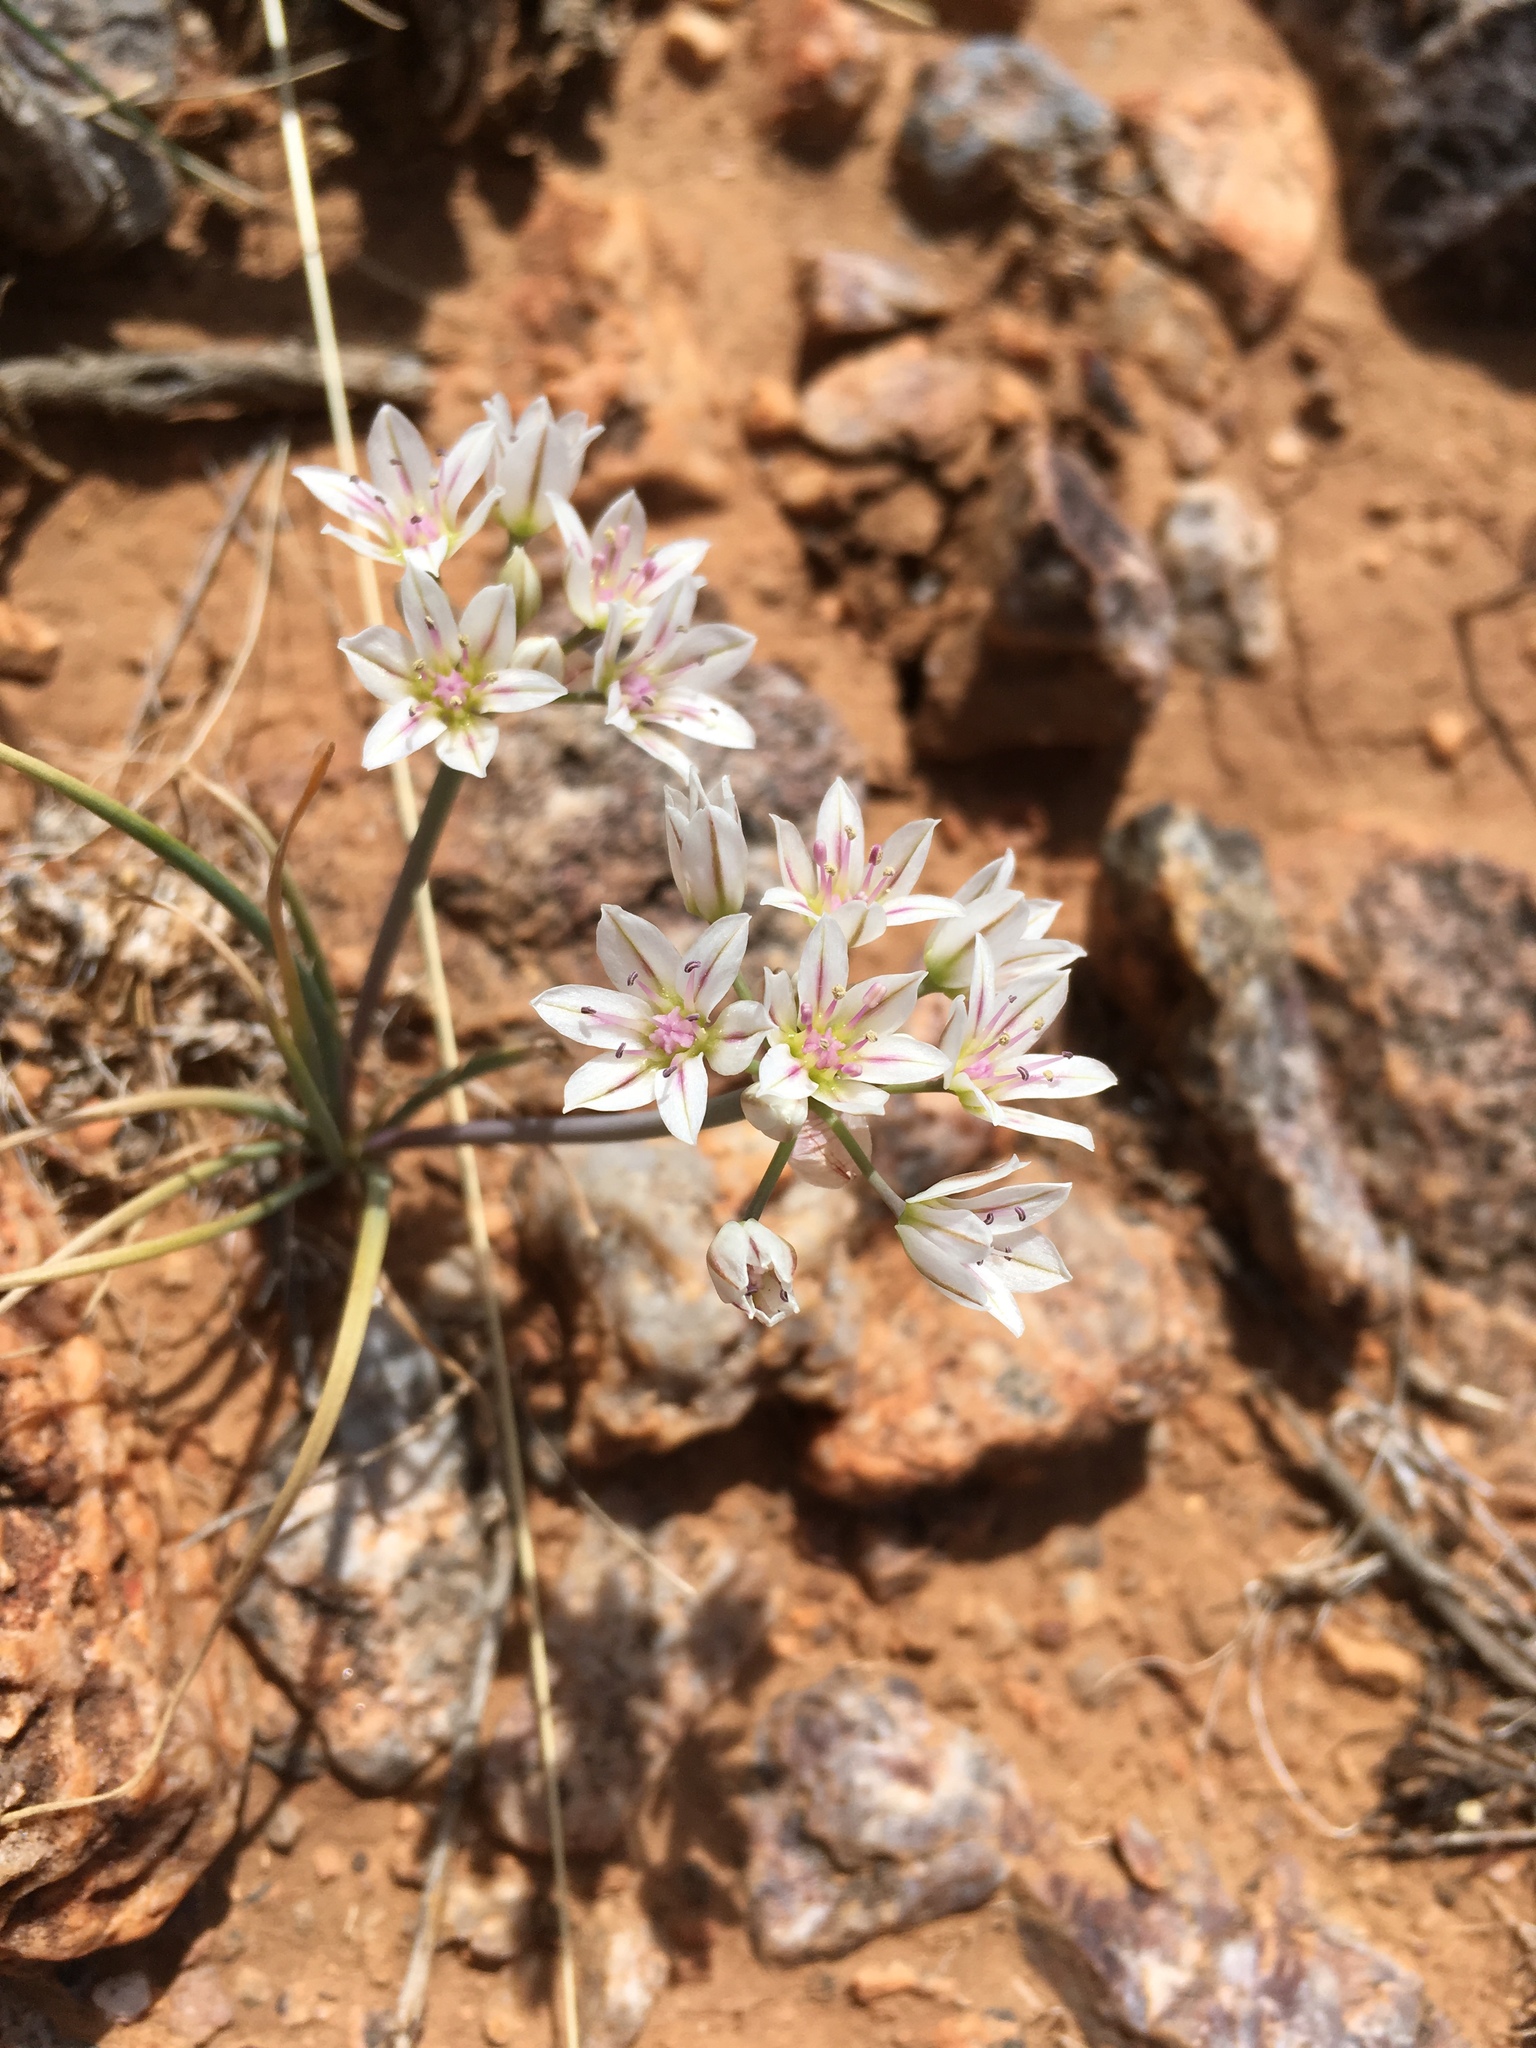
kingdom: Plantae
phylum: Tracheophyta
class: Liliopsida
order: Asparagales
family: Amaryllidaceae
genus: Allium
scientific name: Allium macropetalum
